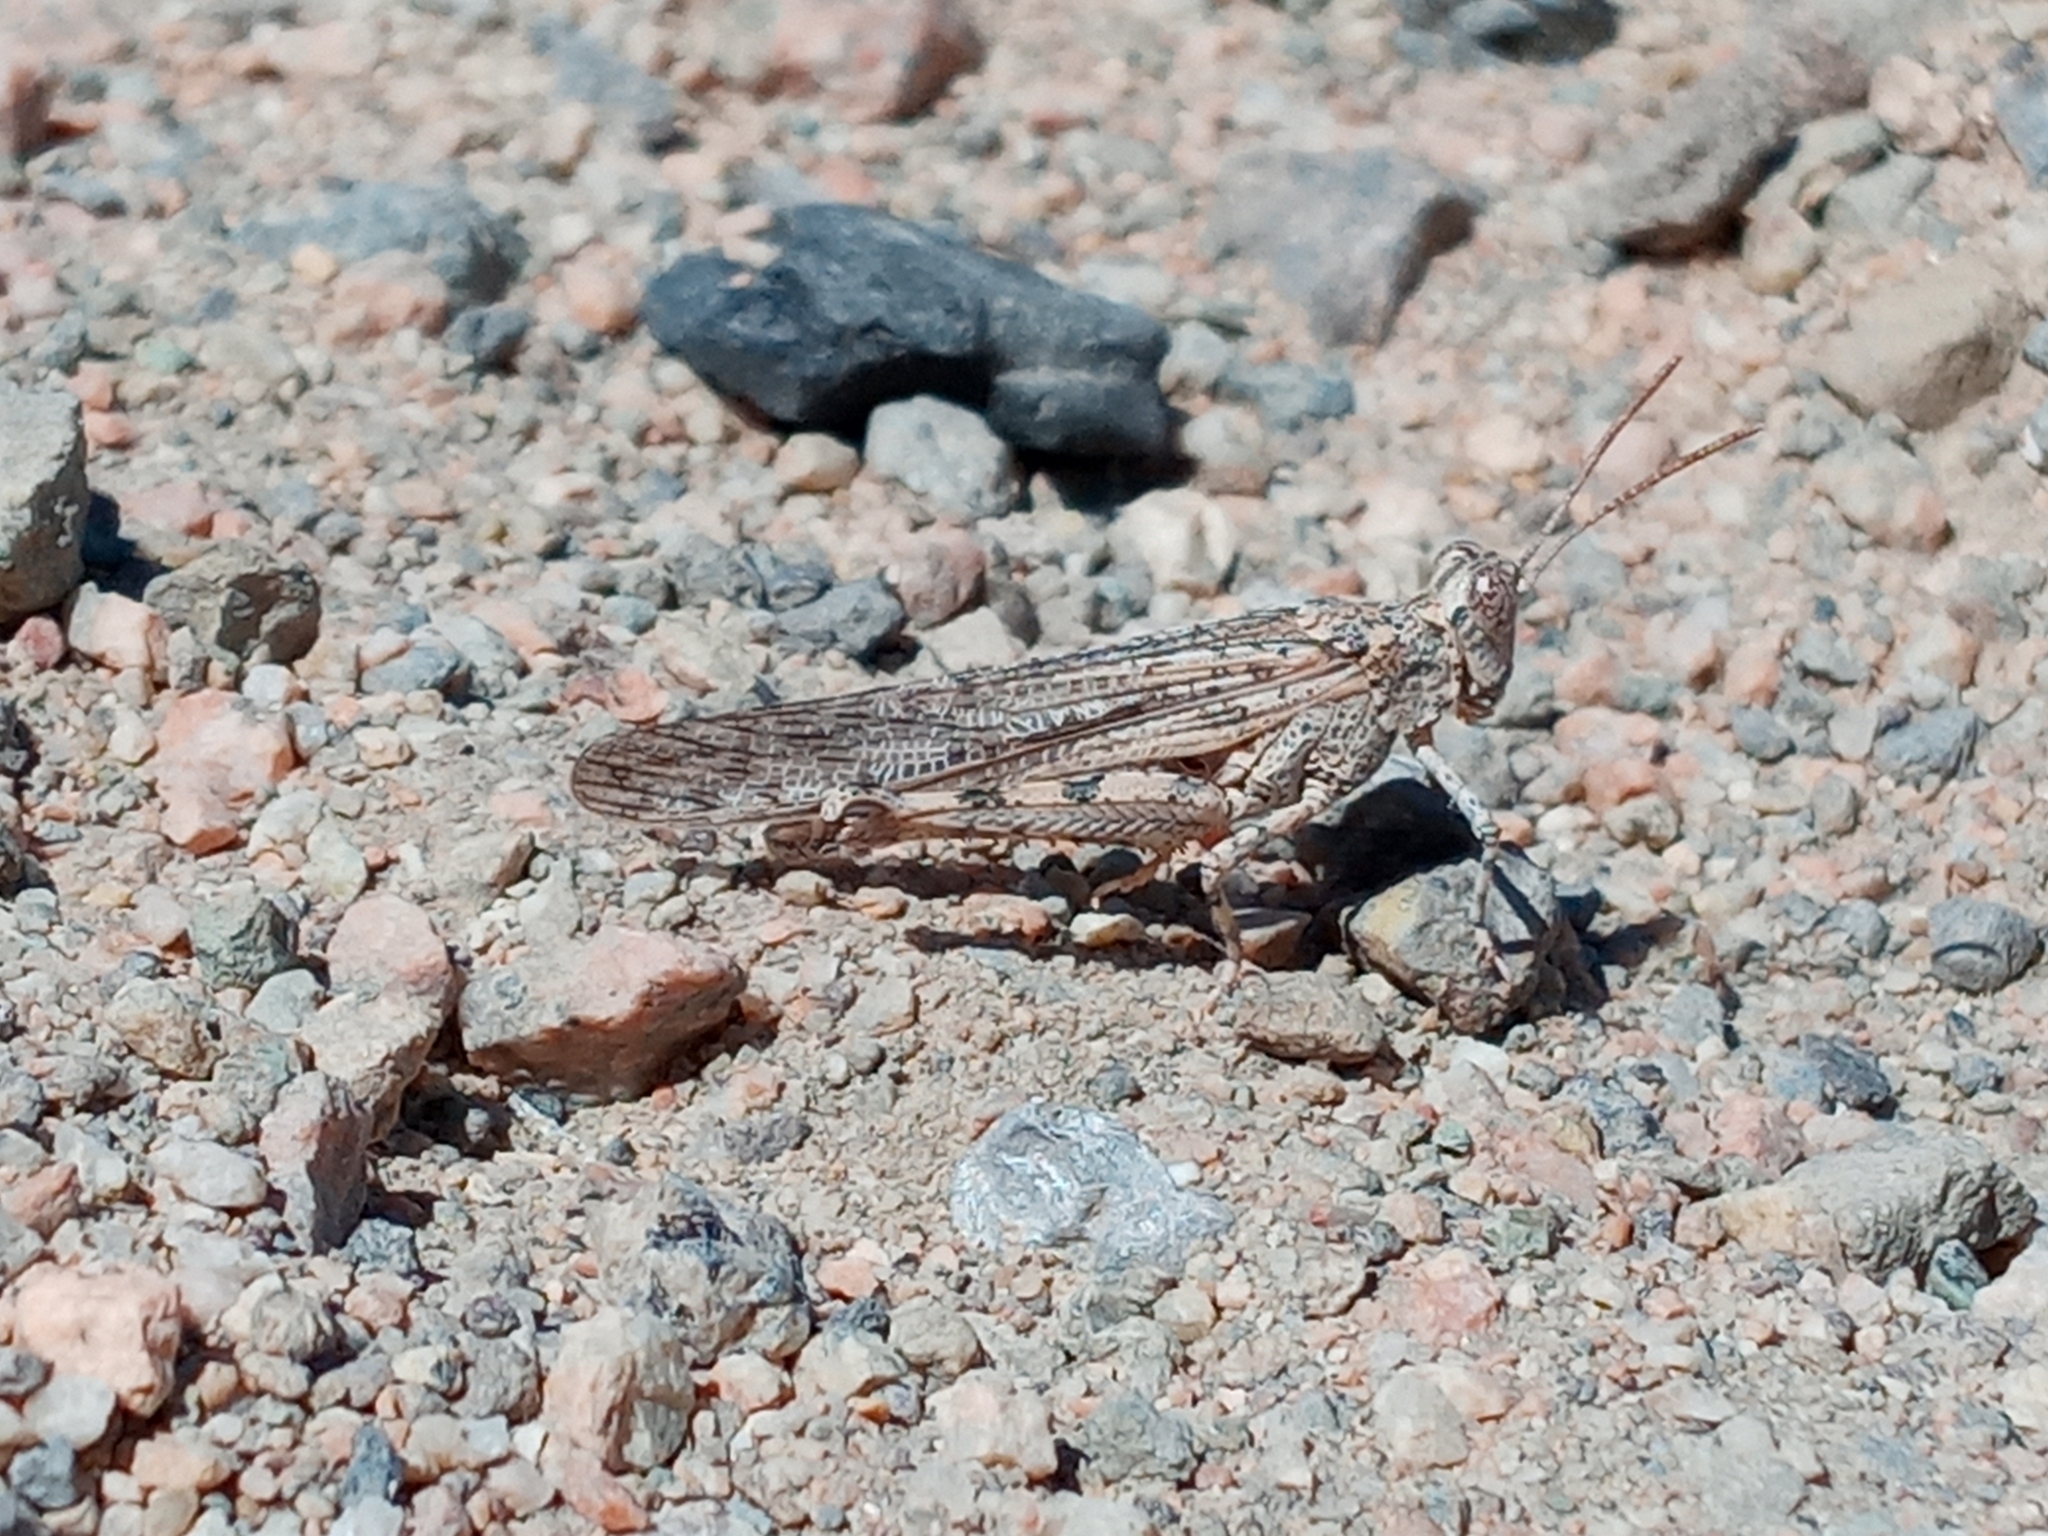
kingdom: Animalia
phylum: Arthropoda
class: Insecta
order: Orthoptera
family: Acrididae
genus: Anconia
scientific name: Anconia integra
